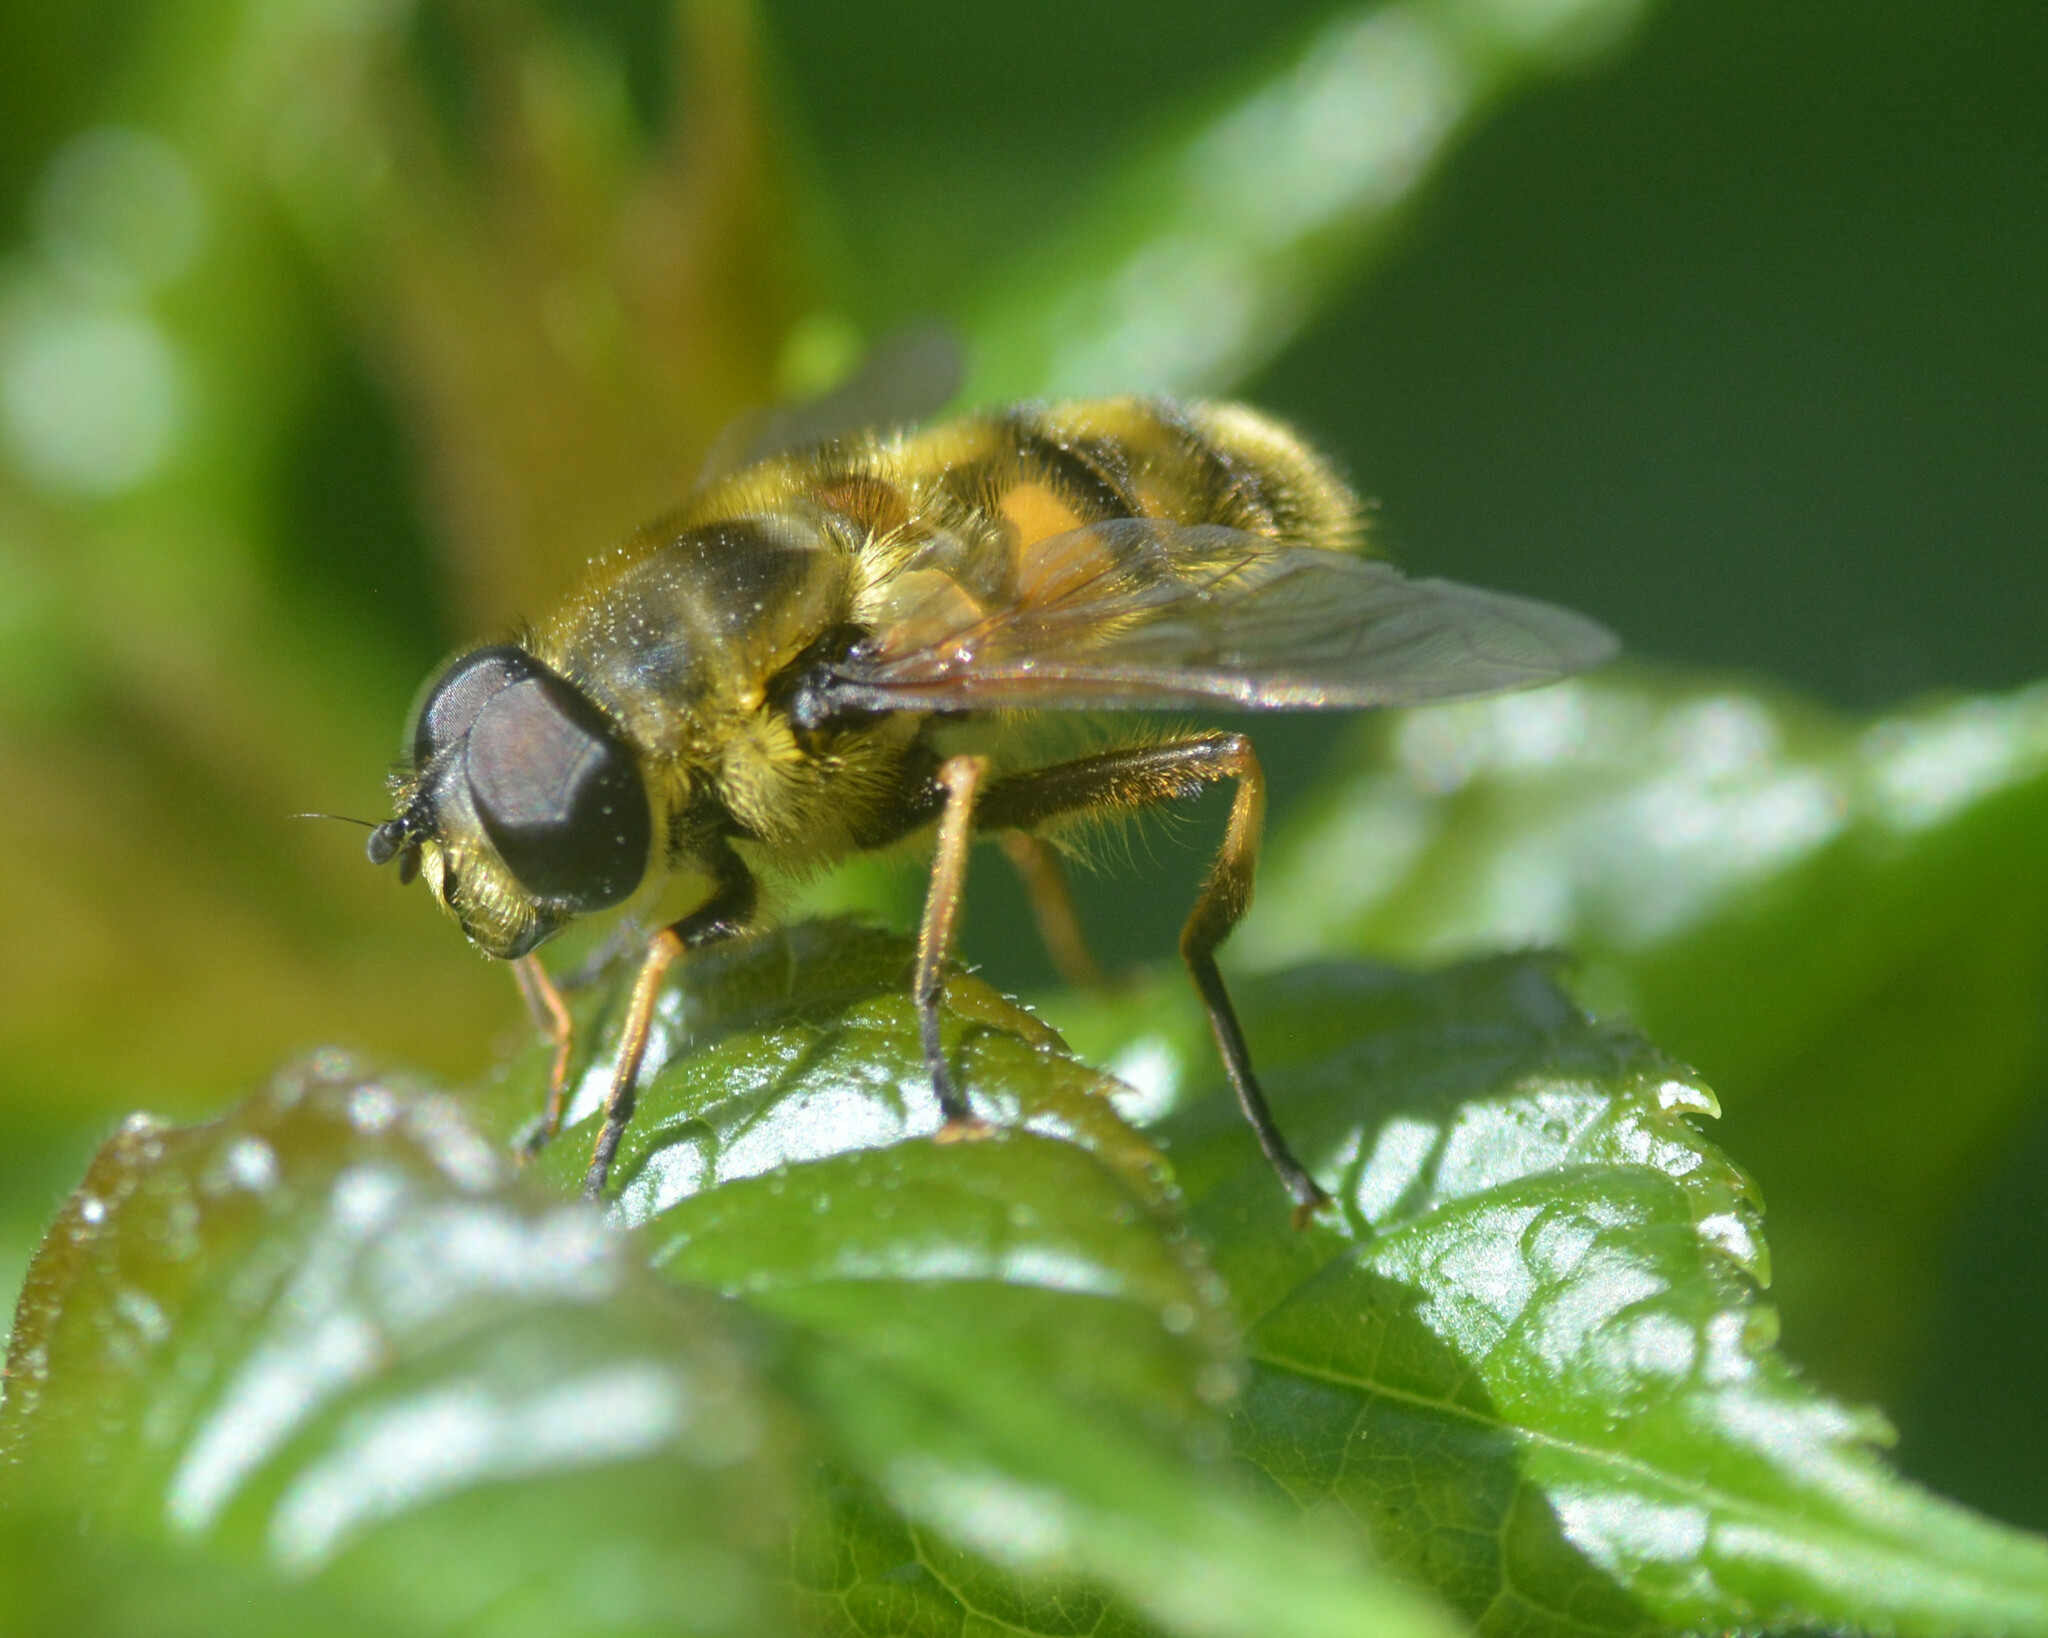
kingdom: Animalia
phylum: Arthropoda
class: Insecta
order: Diptera
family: Syrphidae
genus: Myathropa
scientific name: Myathropa florea
